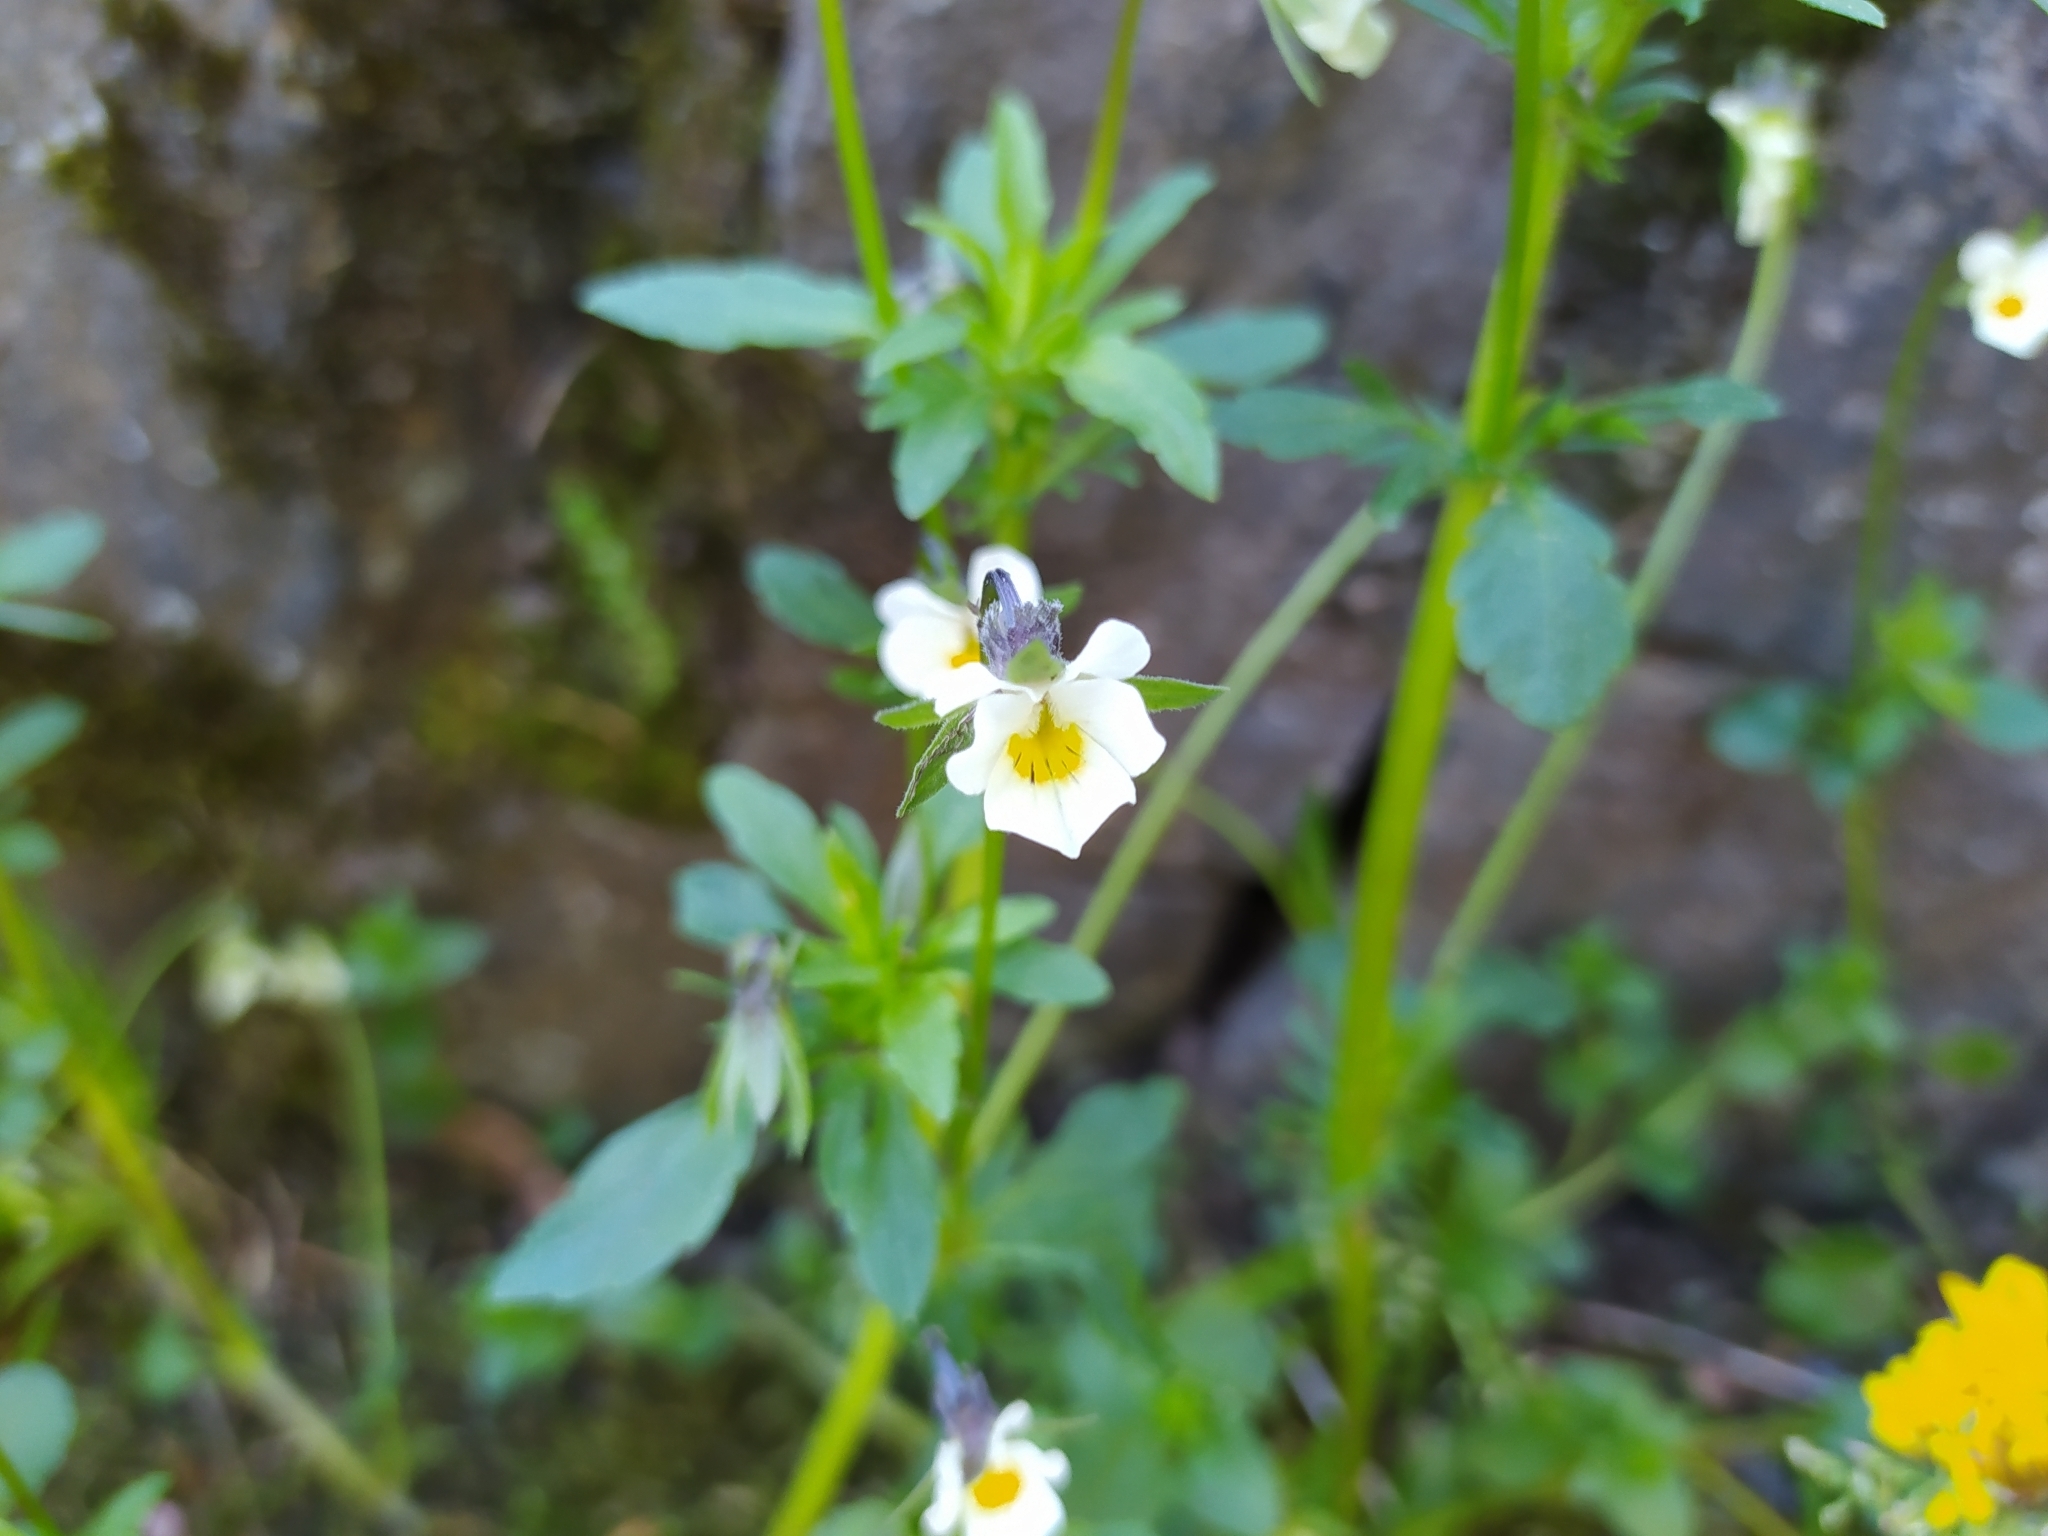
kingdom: Plantae
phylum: Tracheophyta
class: Magnoliopsida
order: Malpighiales
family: Violaceae
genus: Viola
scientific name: Viola arvensis
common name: Field pansy
